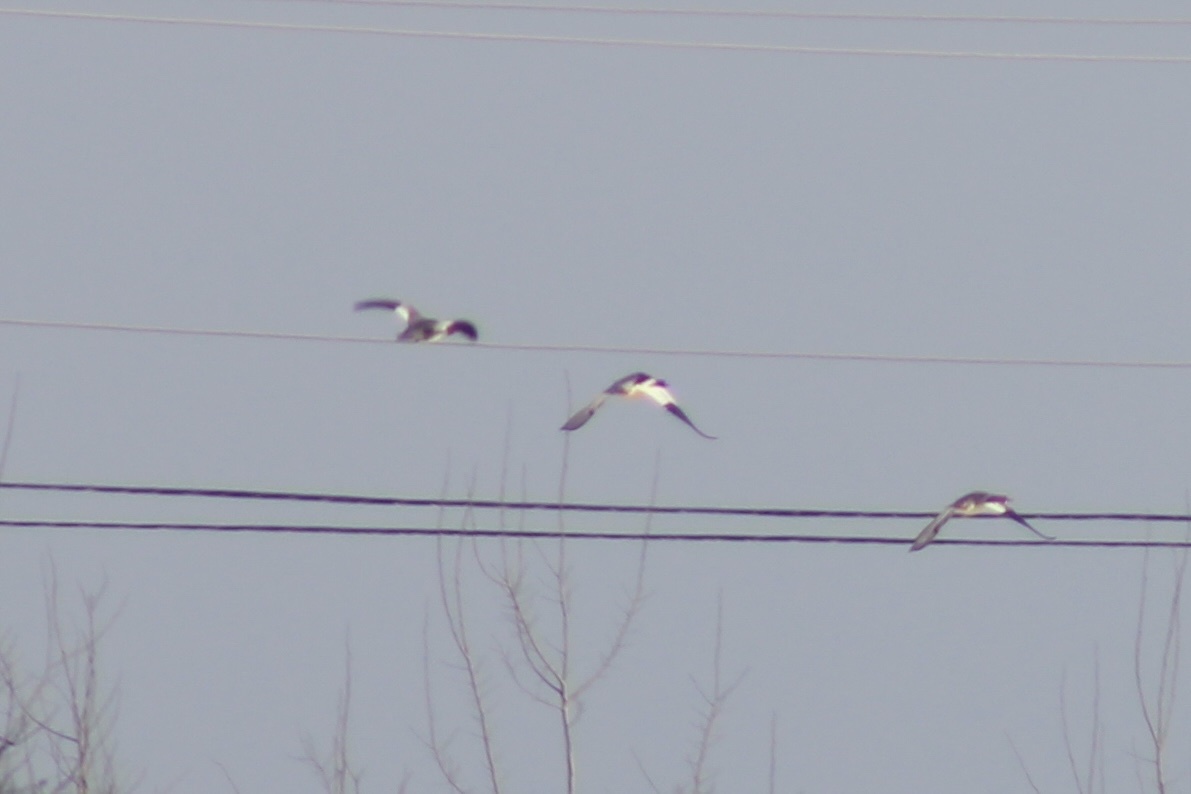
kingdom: Animalia
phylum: Chordata
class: Aves
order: Anseriformes
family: Anatidae
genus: Mergus
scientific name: Mergus merganser
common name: Common merganser
